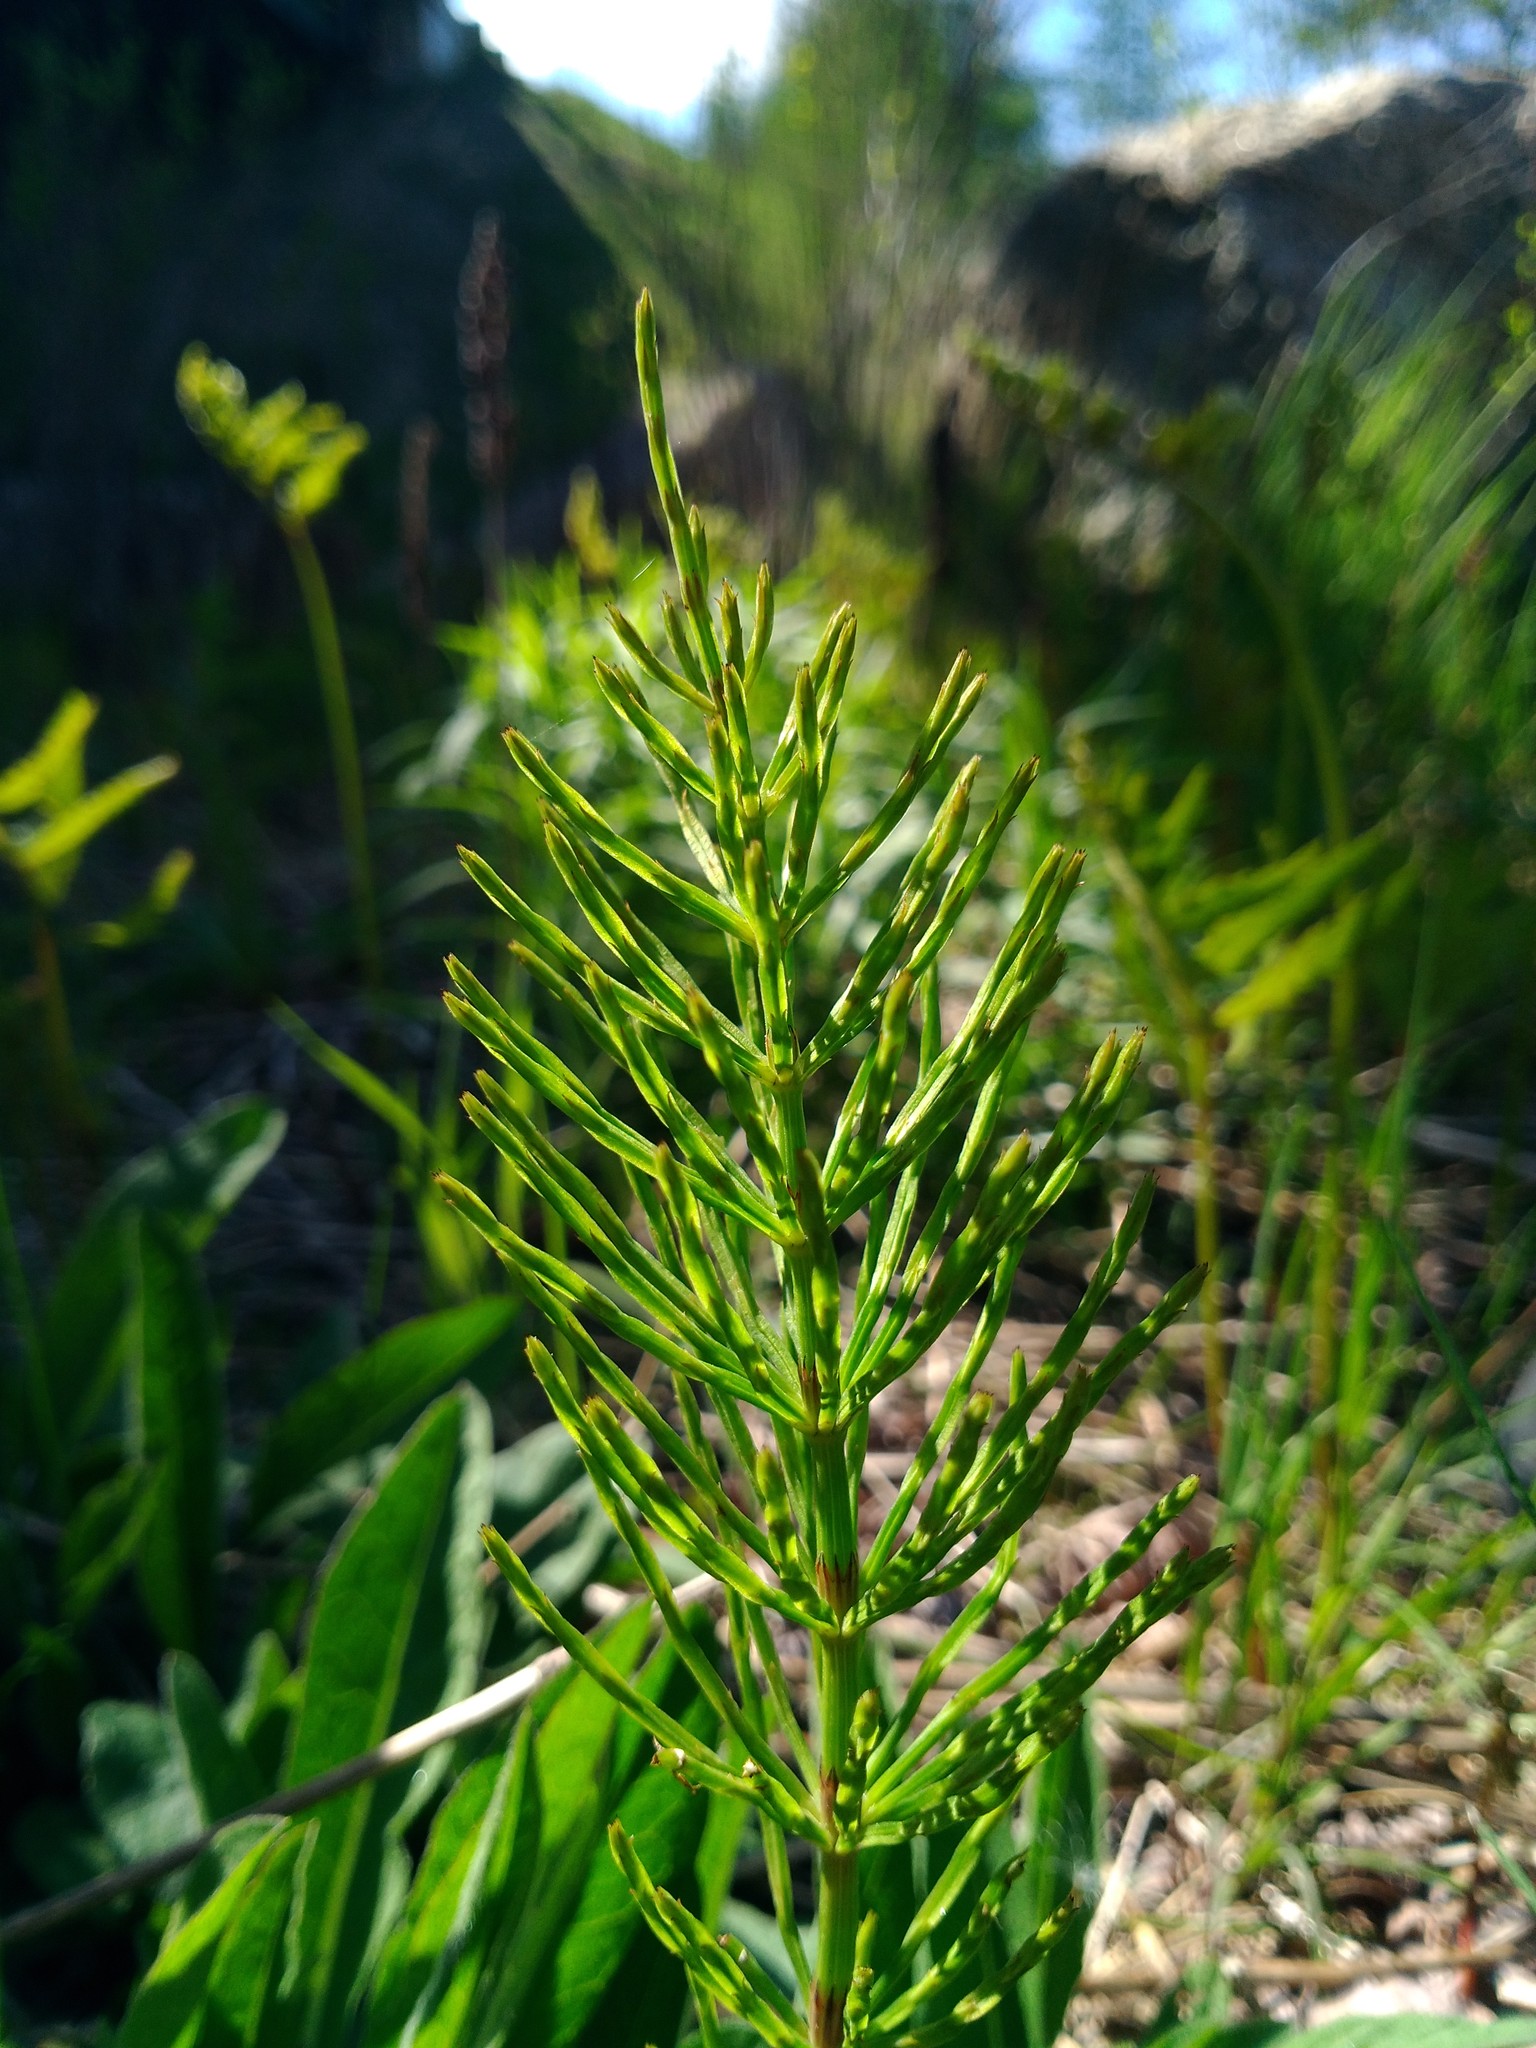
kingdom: Plantae
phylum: Tracheophyta
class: Polypodiopsida
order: Equisetales
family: Equisetaceae
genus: Equisetum
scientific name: Equisetum arvense
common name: Field horsetail
